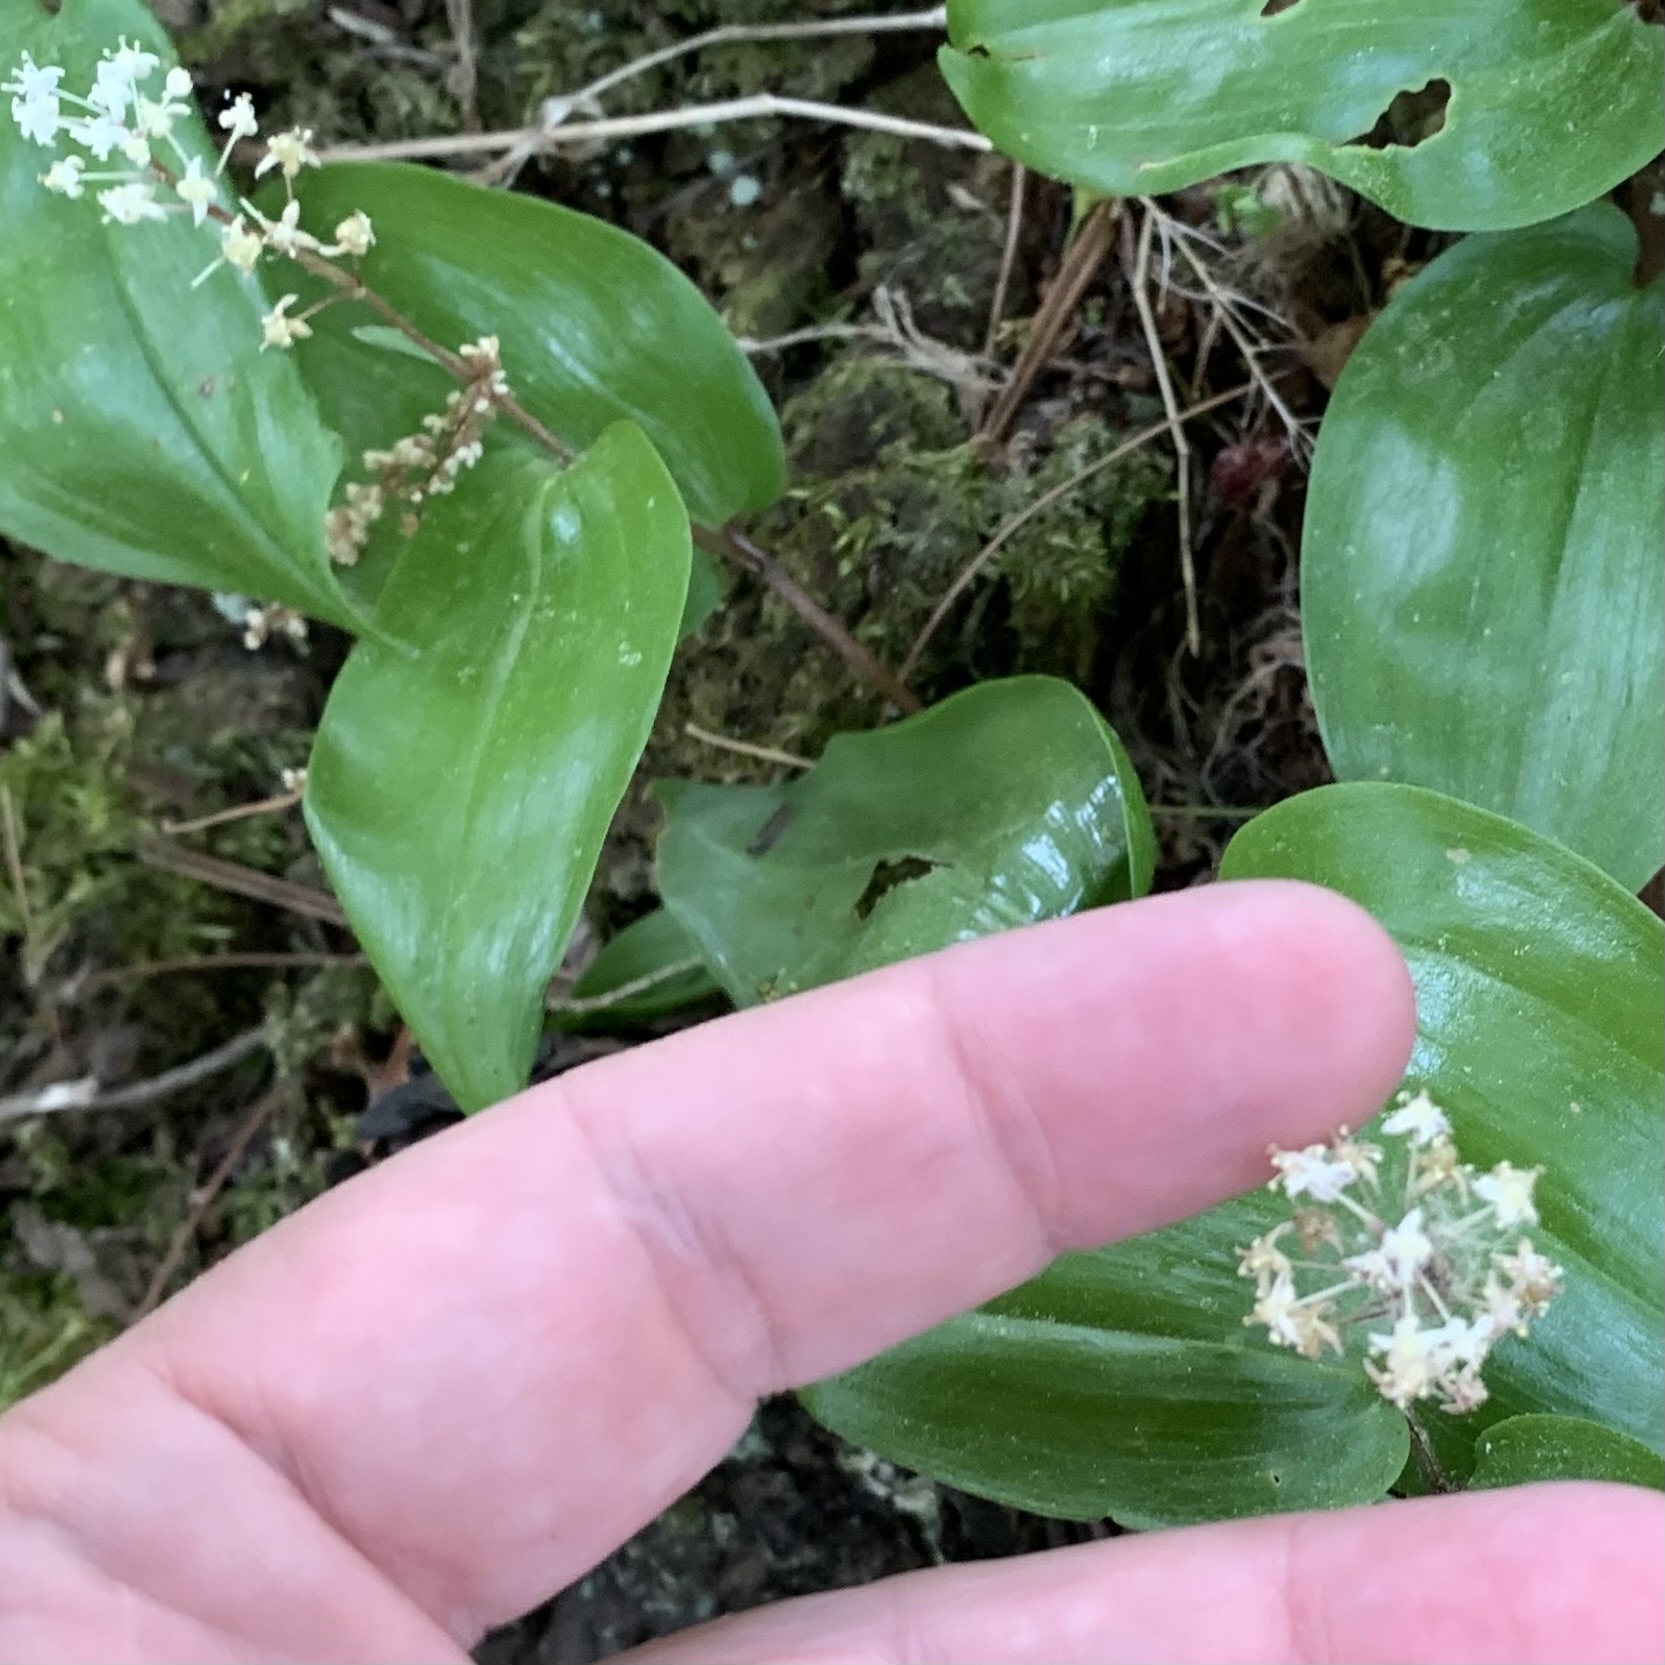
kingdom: Plantae
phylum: Tracheophyta
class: Liliopsida
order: Asparagales
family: Asparagaceae
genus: Maianthemum
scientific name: Maianthemum canadense
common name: False lily-of-the-valley
